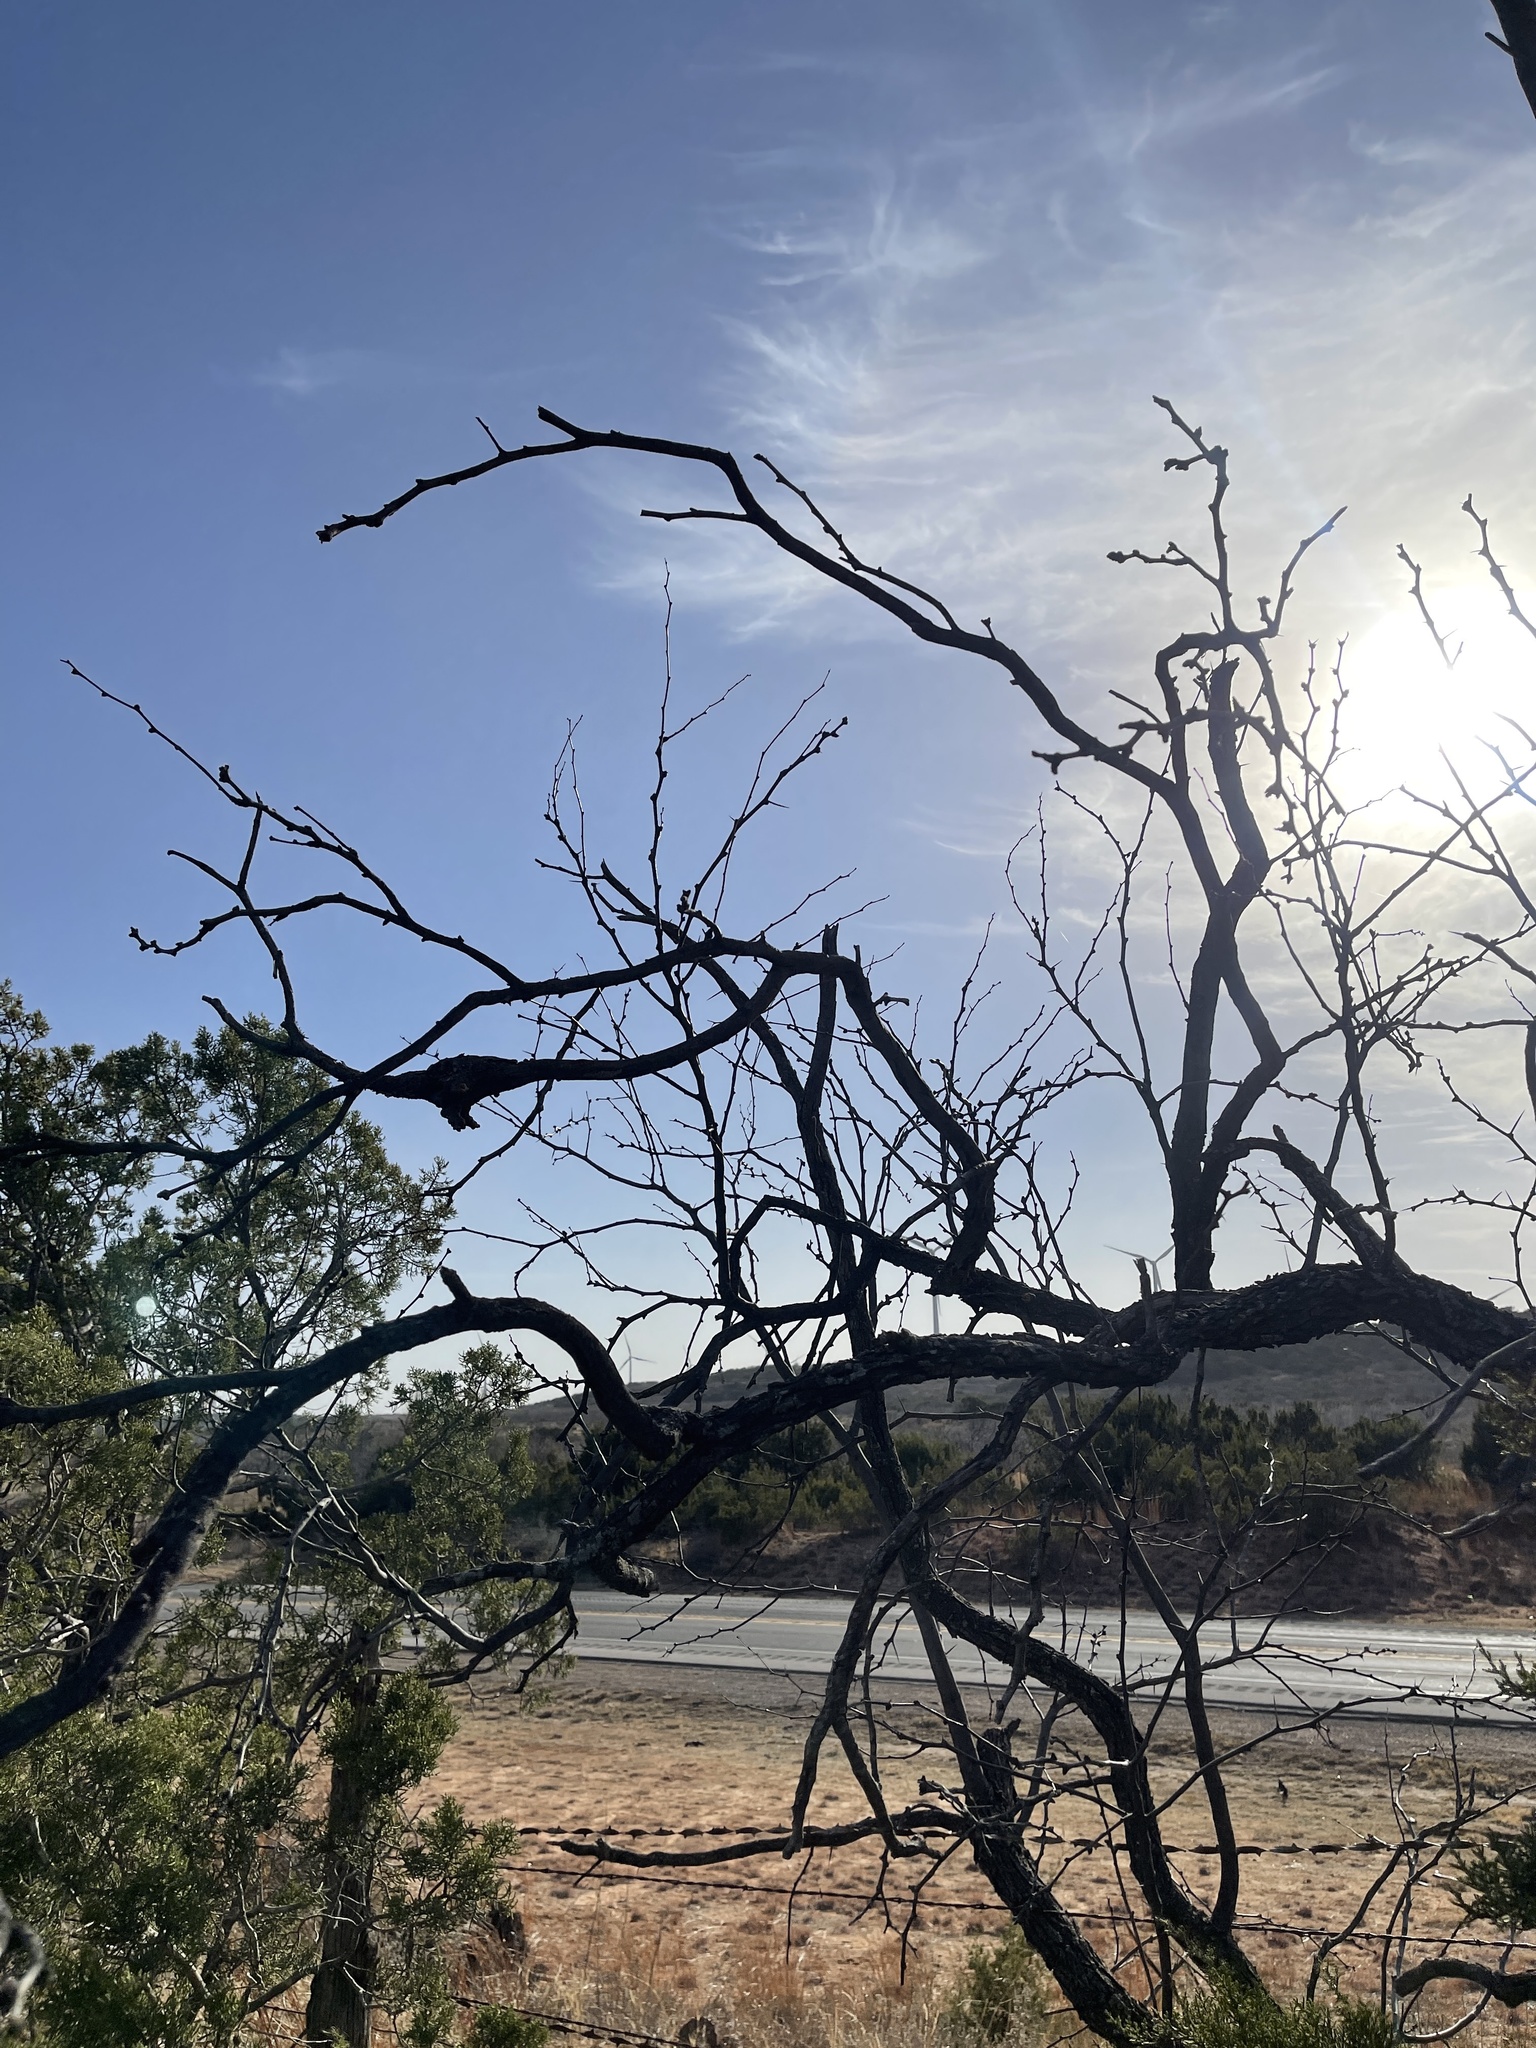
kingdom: Plantae
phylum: Tracheophyta
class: Magnoliopsida
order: Fabales
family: Fabaceae
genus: Prosopis
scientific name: Prosopis glandulosa
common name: Honey mesquite
